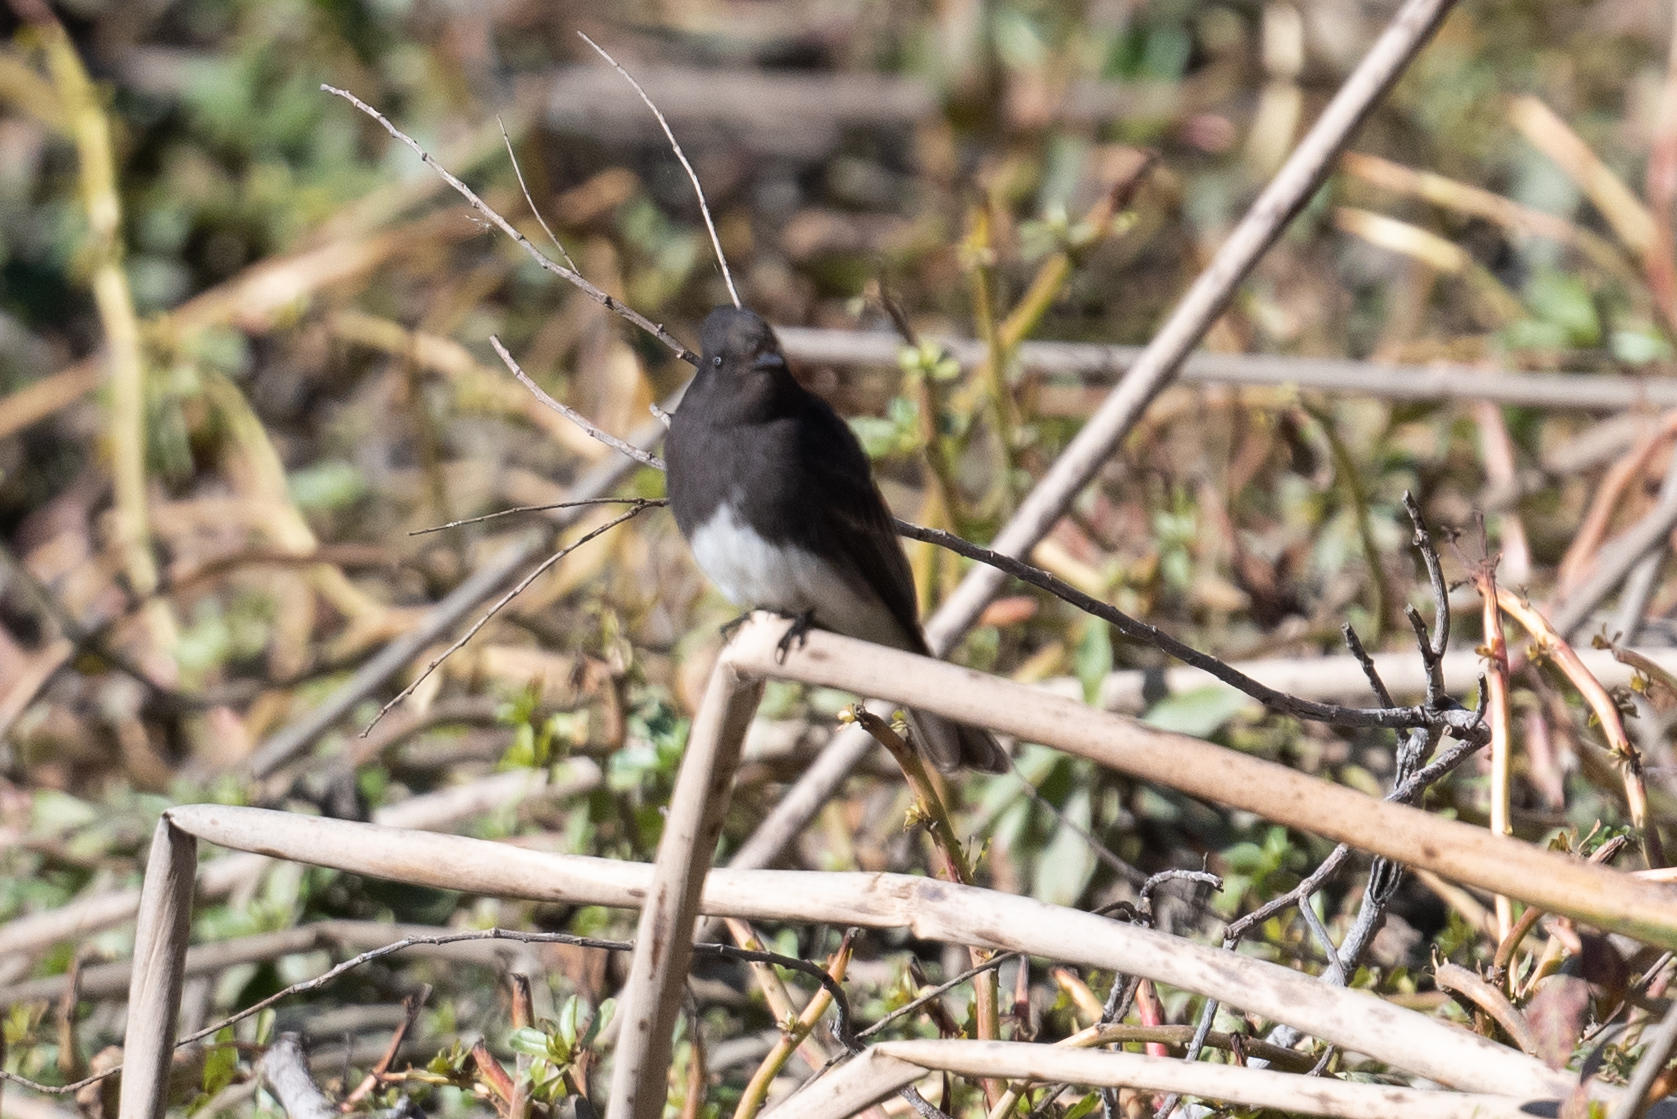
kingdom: Animalia
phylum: Chordata
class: Aves
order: Passeriformes
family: Tyrannidae
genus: Sayornis
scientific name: Sayornis nigricans
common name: Black phoebe
